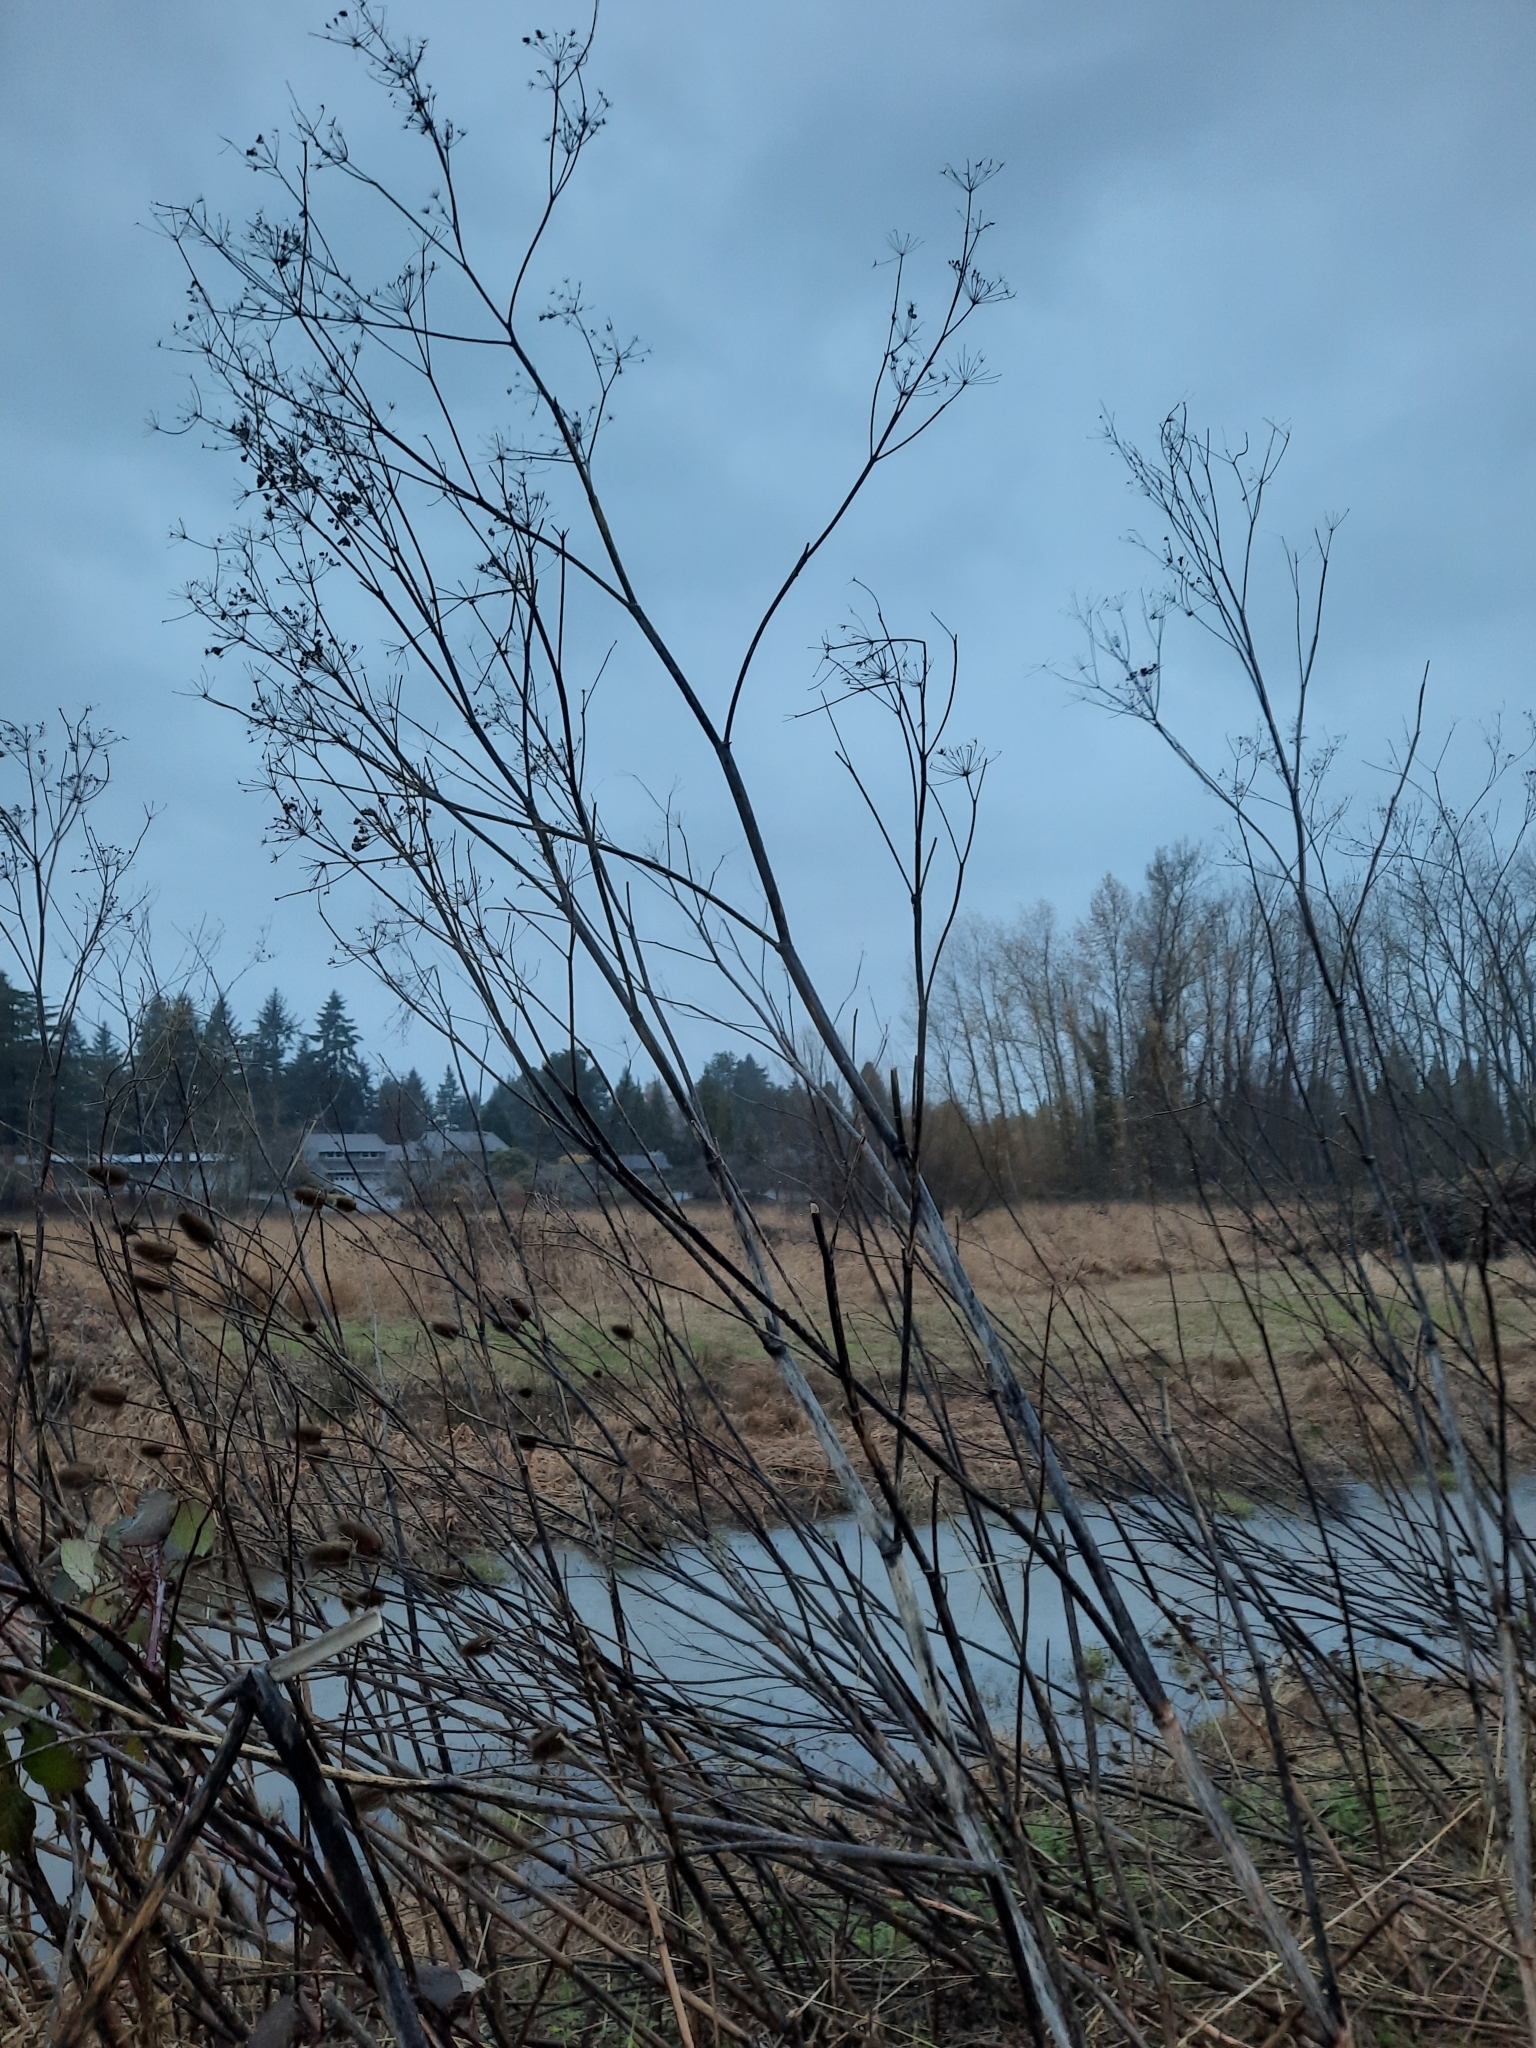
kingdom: Plantae
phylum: Tracheophyta
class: Magnoliopsida
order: Apiales
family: Apiaceae
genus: Conium
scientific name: Conium maculatum
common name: Hemlock
